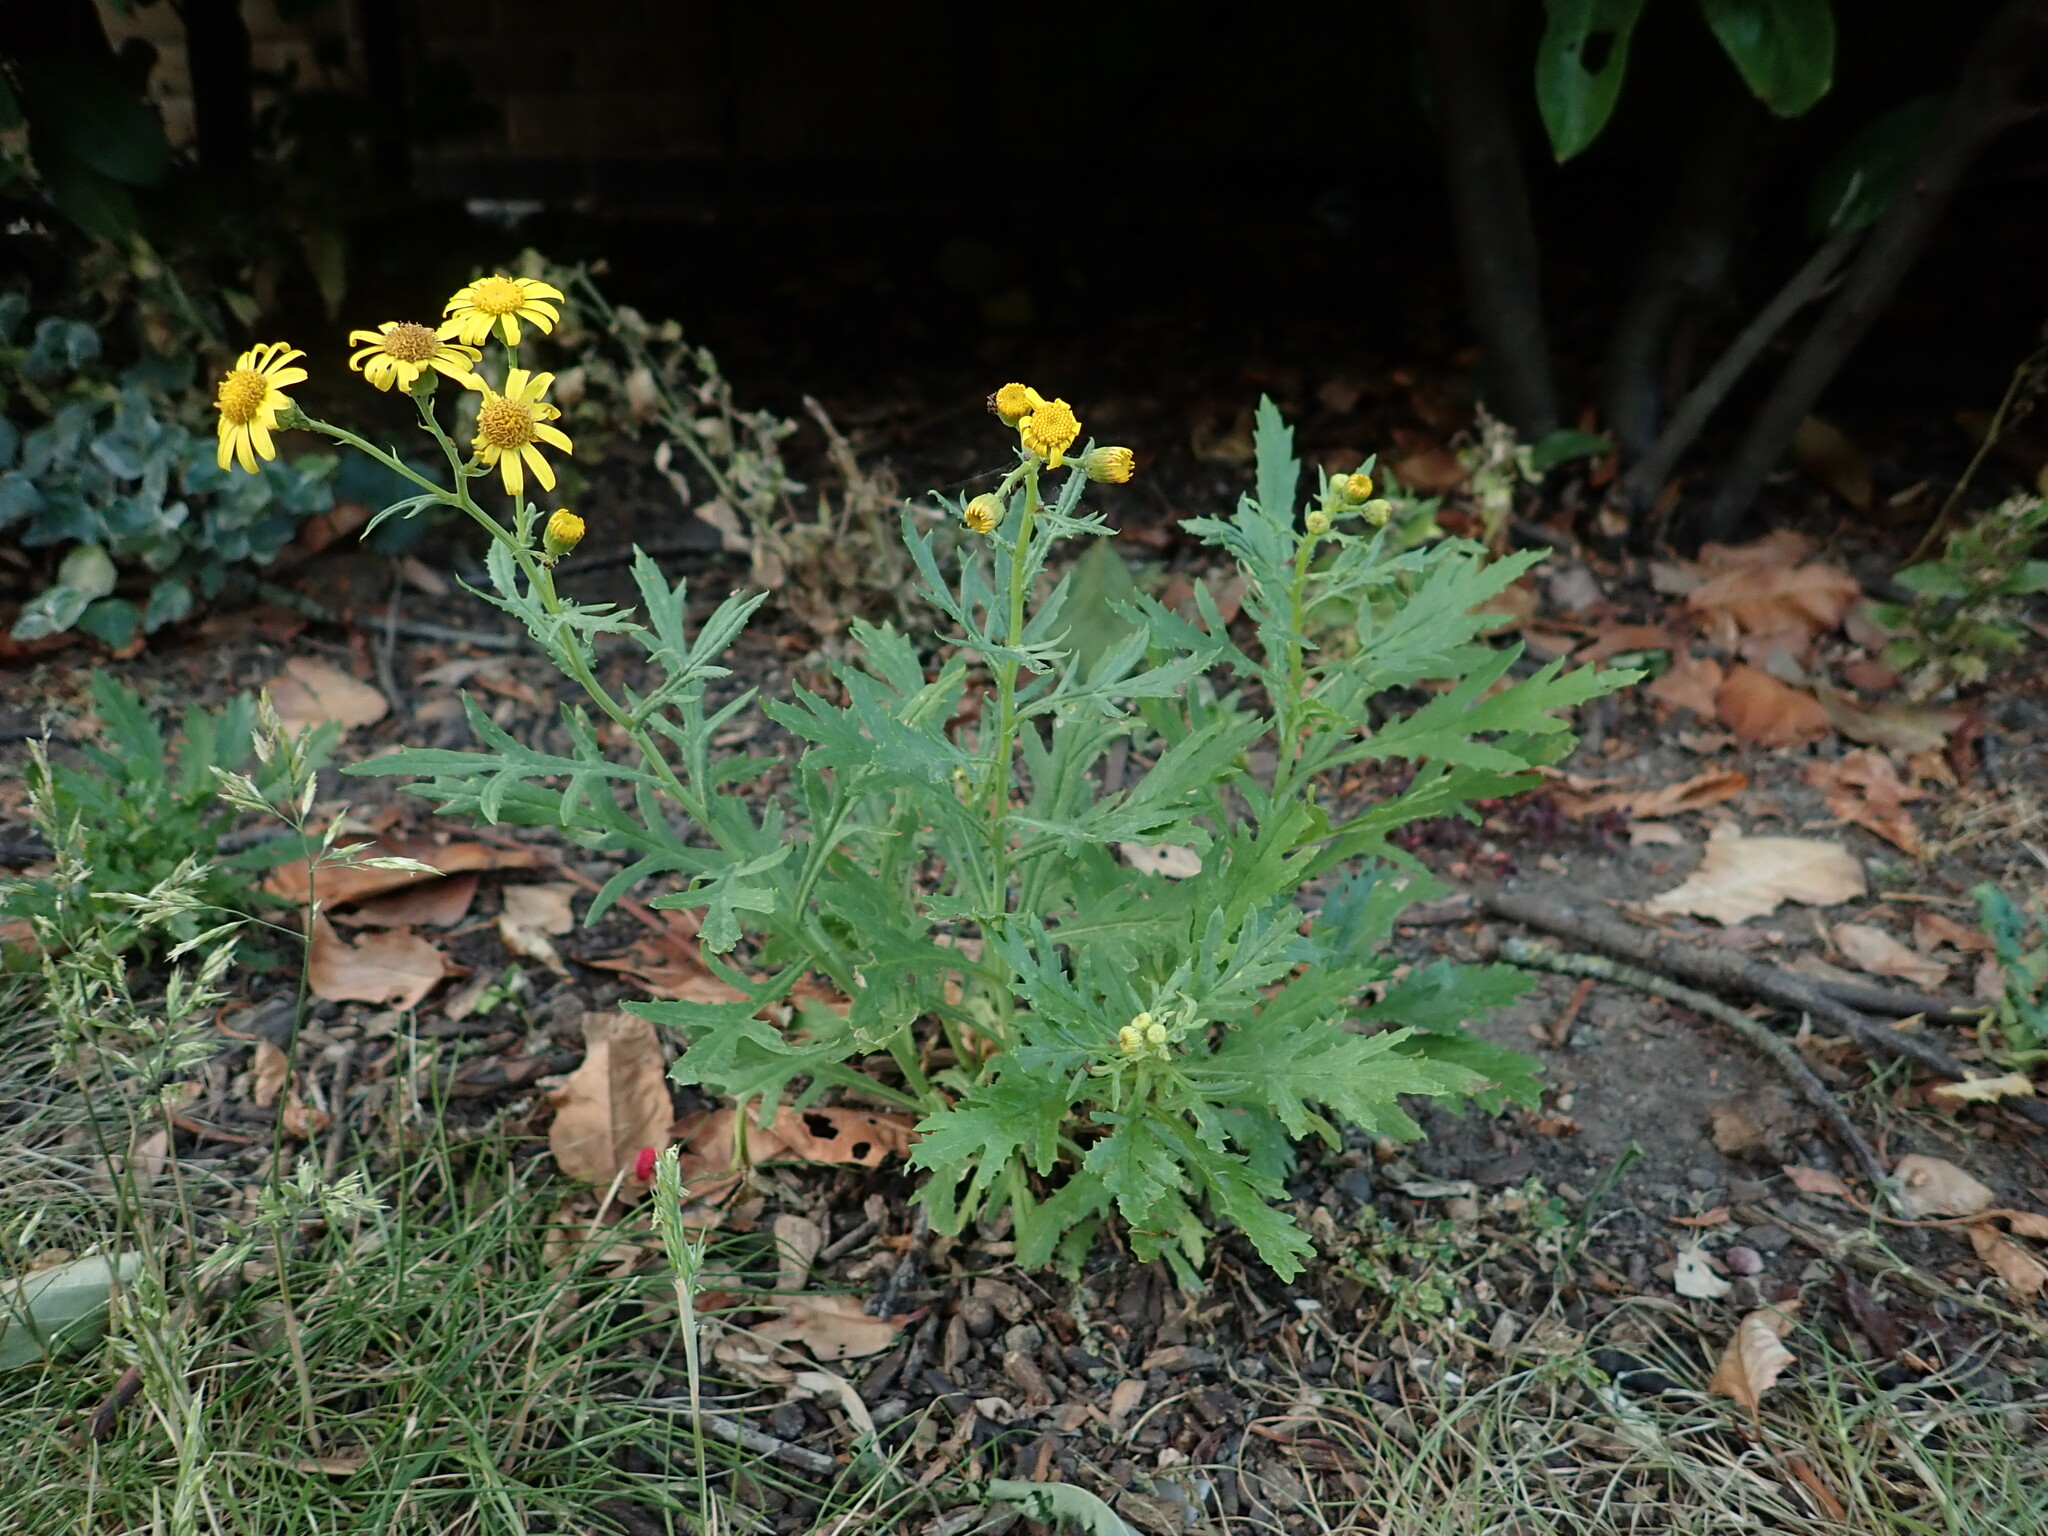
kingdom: Plantae
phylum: Tracheophyta
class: Magnoliopsida
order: Asterales
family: Asteraceae
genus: Senecio
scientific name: Senecio squalidus
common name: Oxford ragwort
